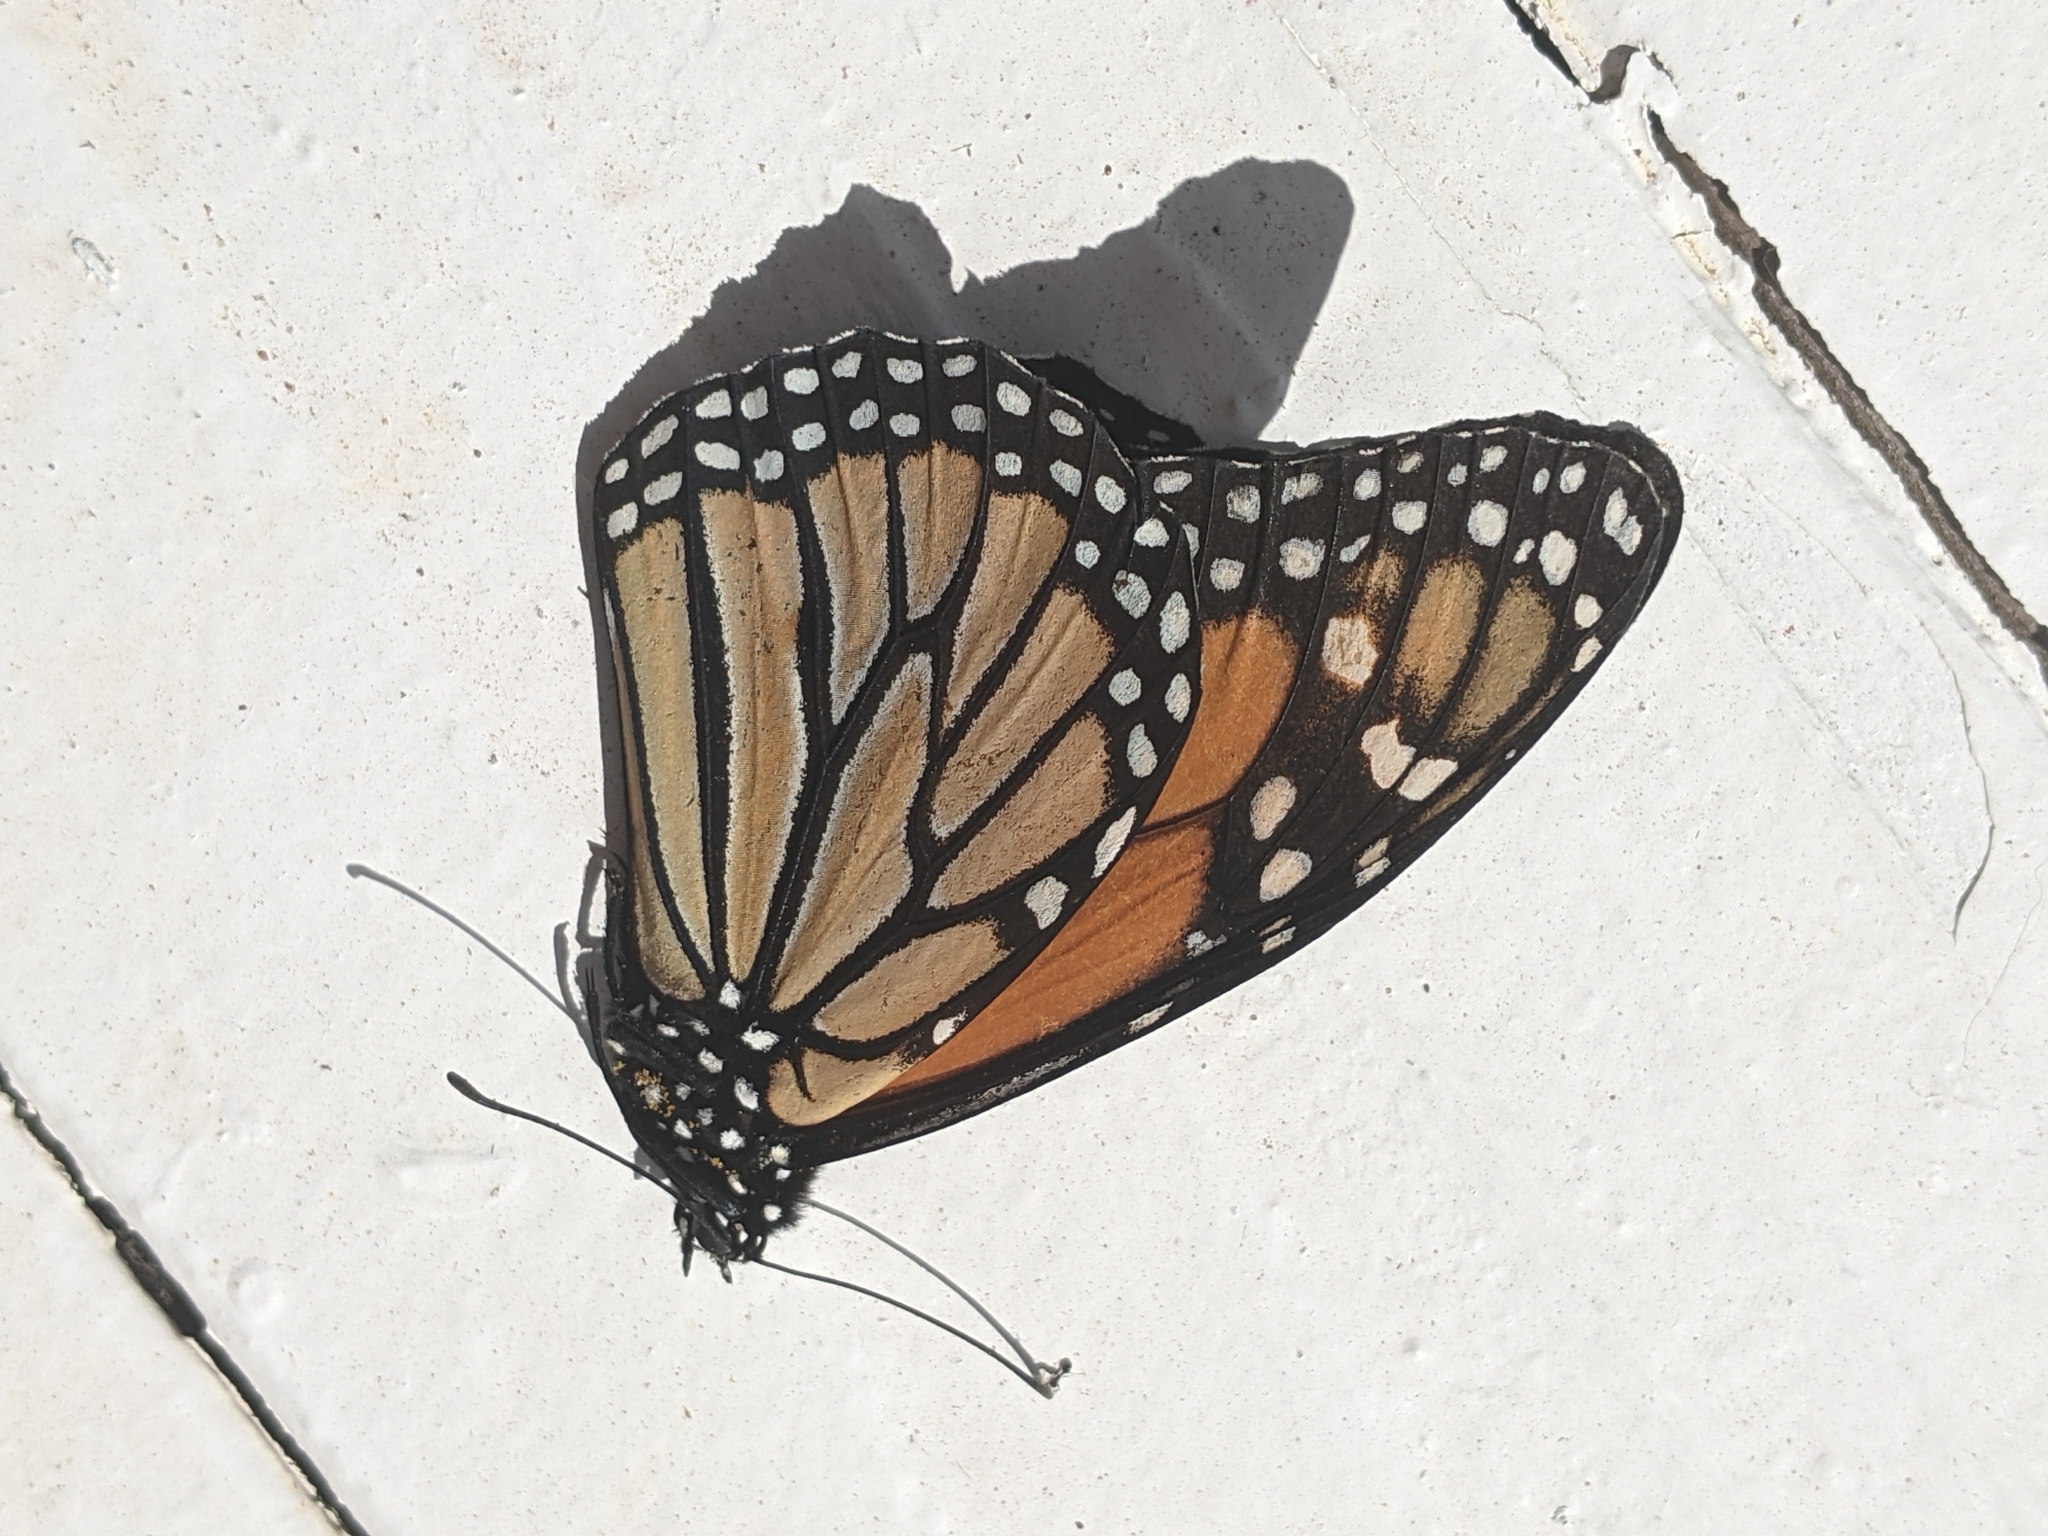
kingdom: Animalia
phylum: Arthropoda
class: Insecta
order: Lepidoptera
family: Nymphalidae
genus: Danaus
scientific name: Danaus plexippus
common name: Monarch
